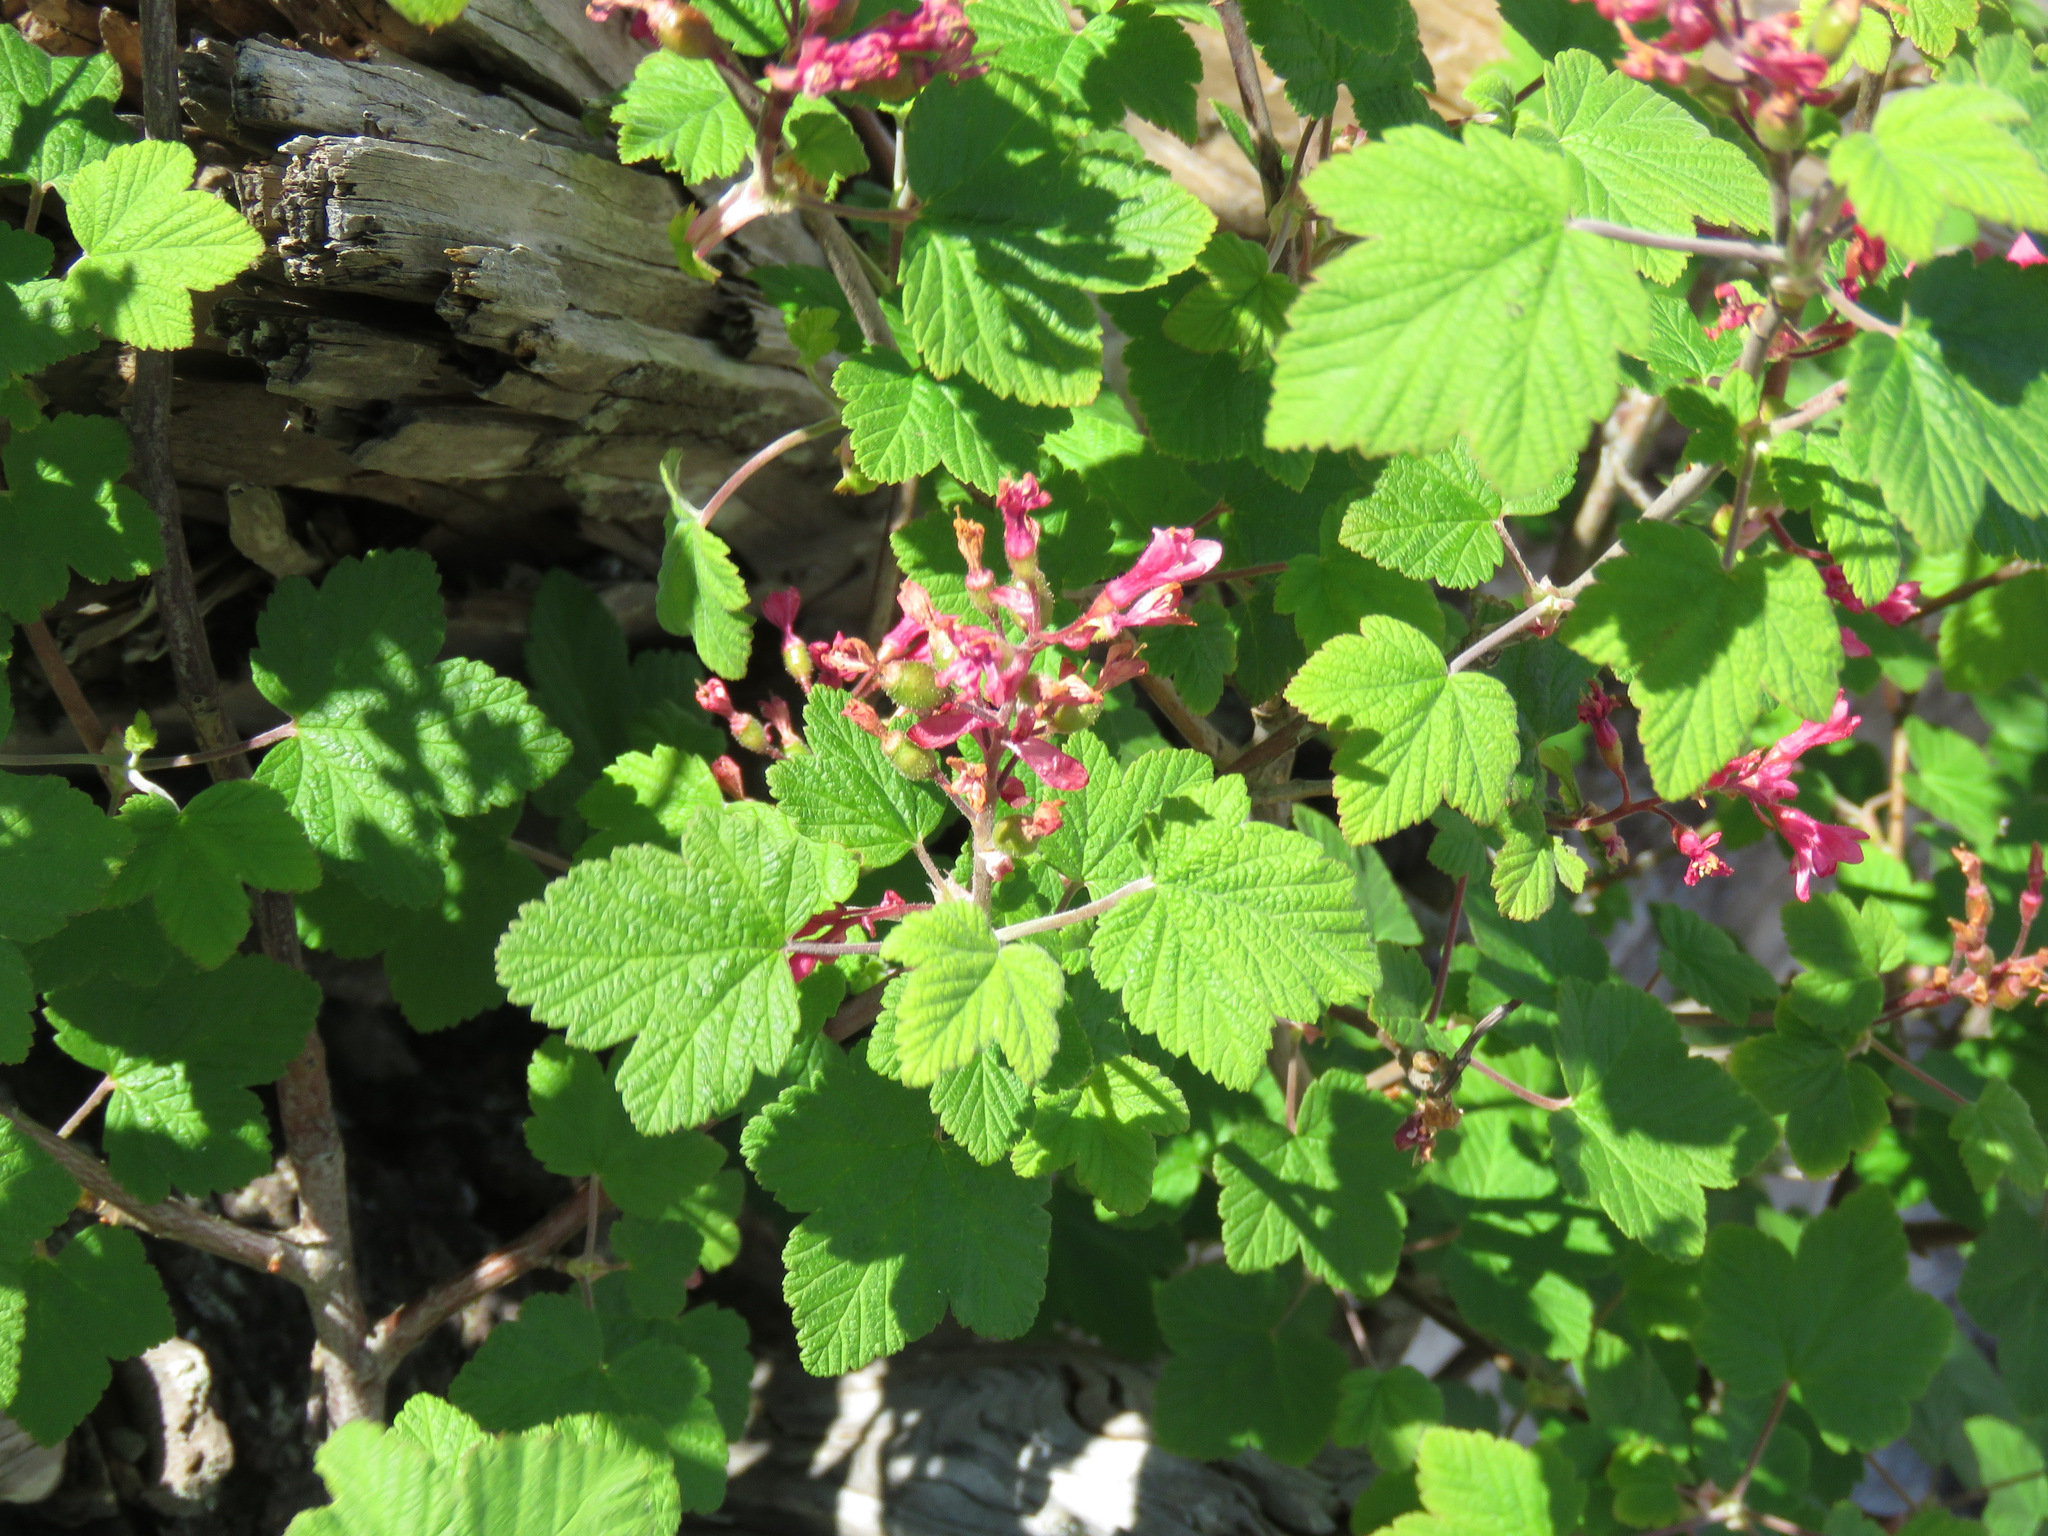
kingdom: Plantae
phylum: Tracheophyta
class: Magnoliopsida
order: Saxifragales
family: Grossulariaceae
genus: Ribes
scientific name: Ribes sanguineum
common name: Flowering currant
